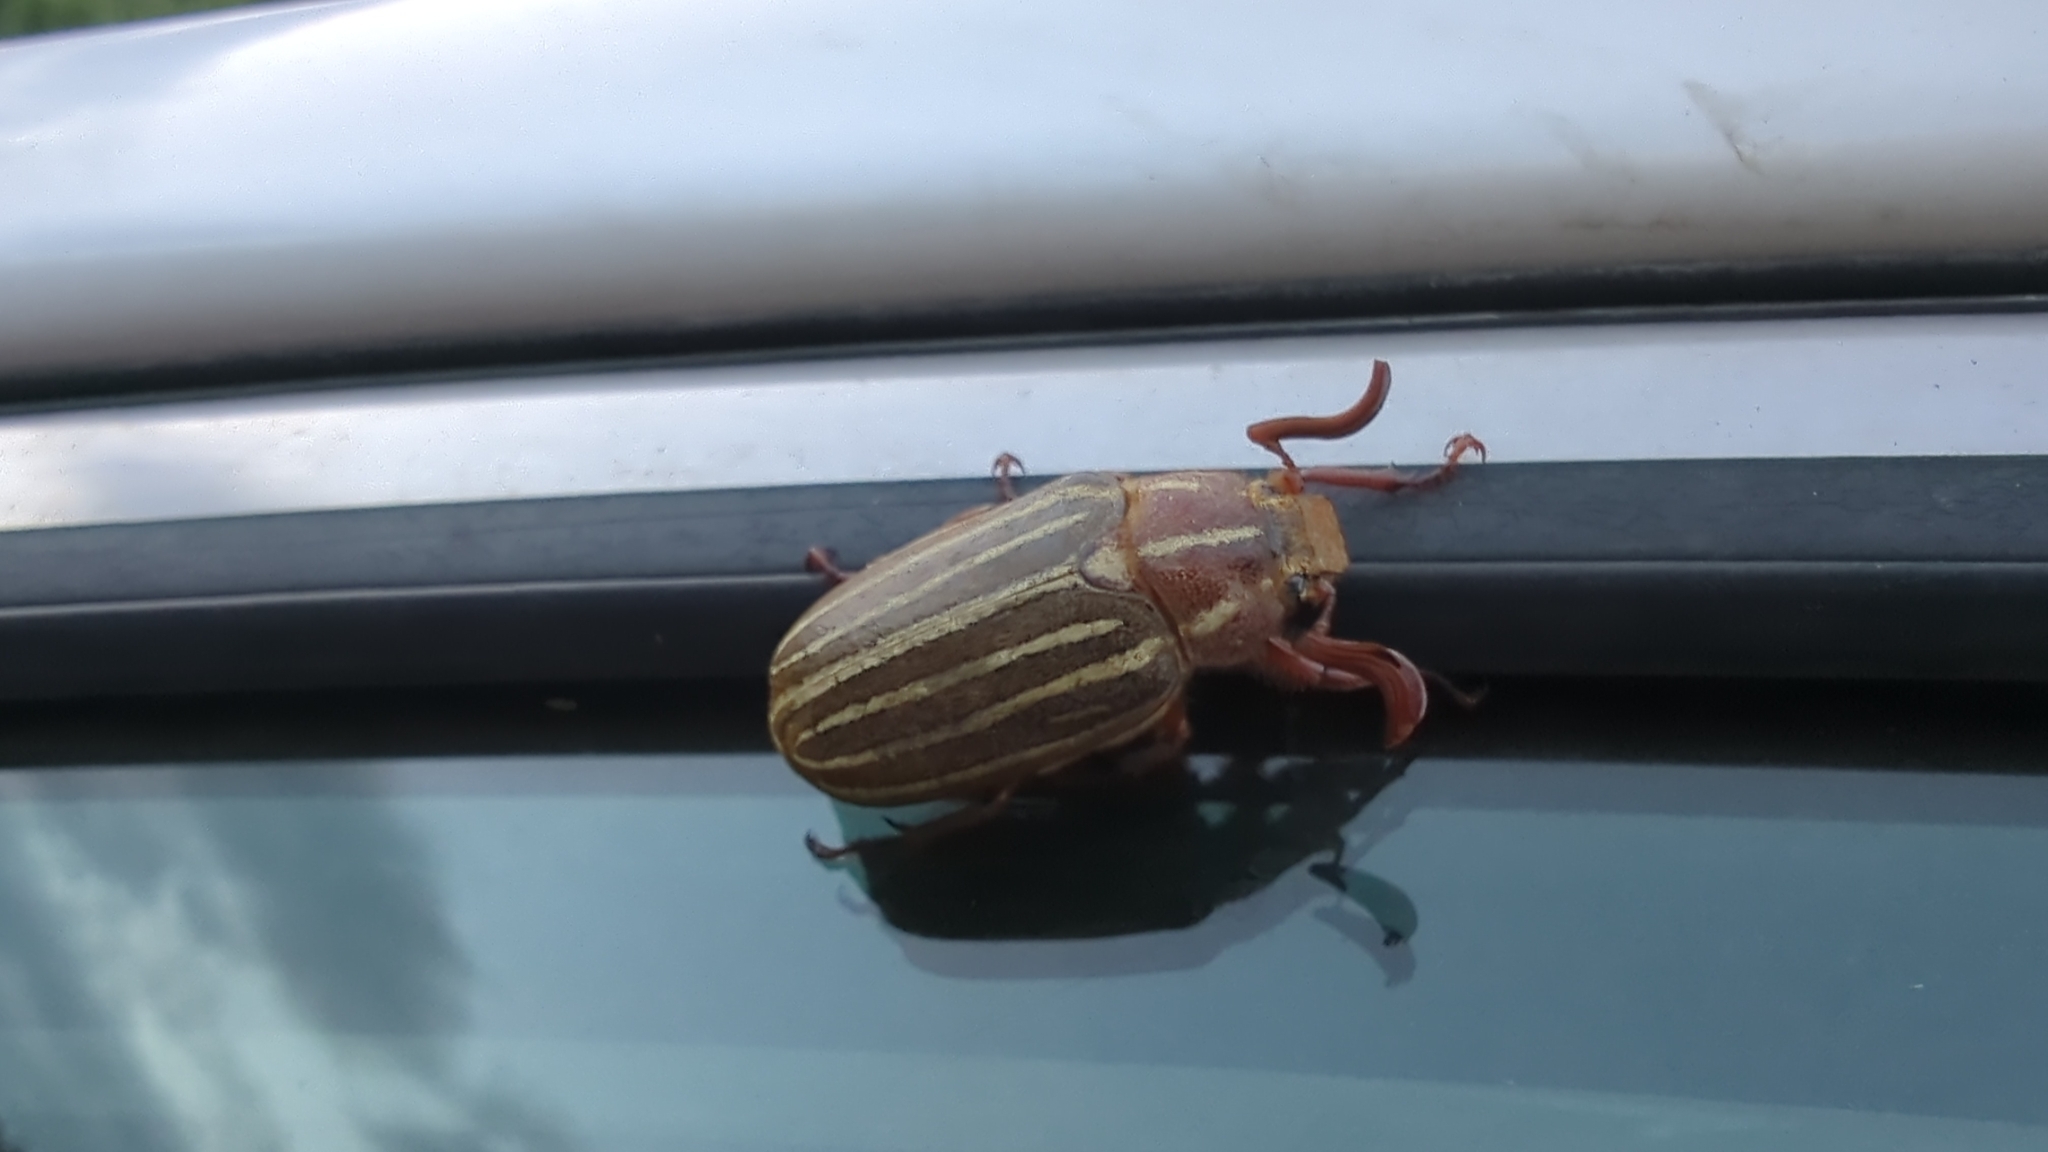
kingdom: Animalia
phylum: Arthropoda
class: Insecta
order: Coleoptera
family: Scarabaeidae
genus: Polyphylla
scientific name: Polyphylla crinita
